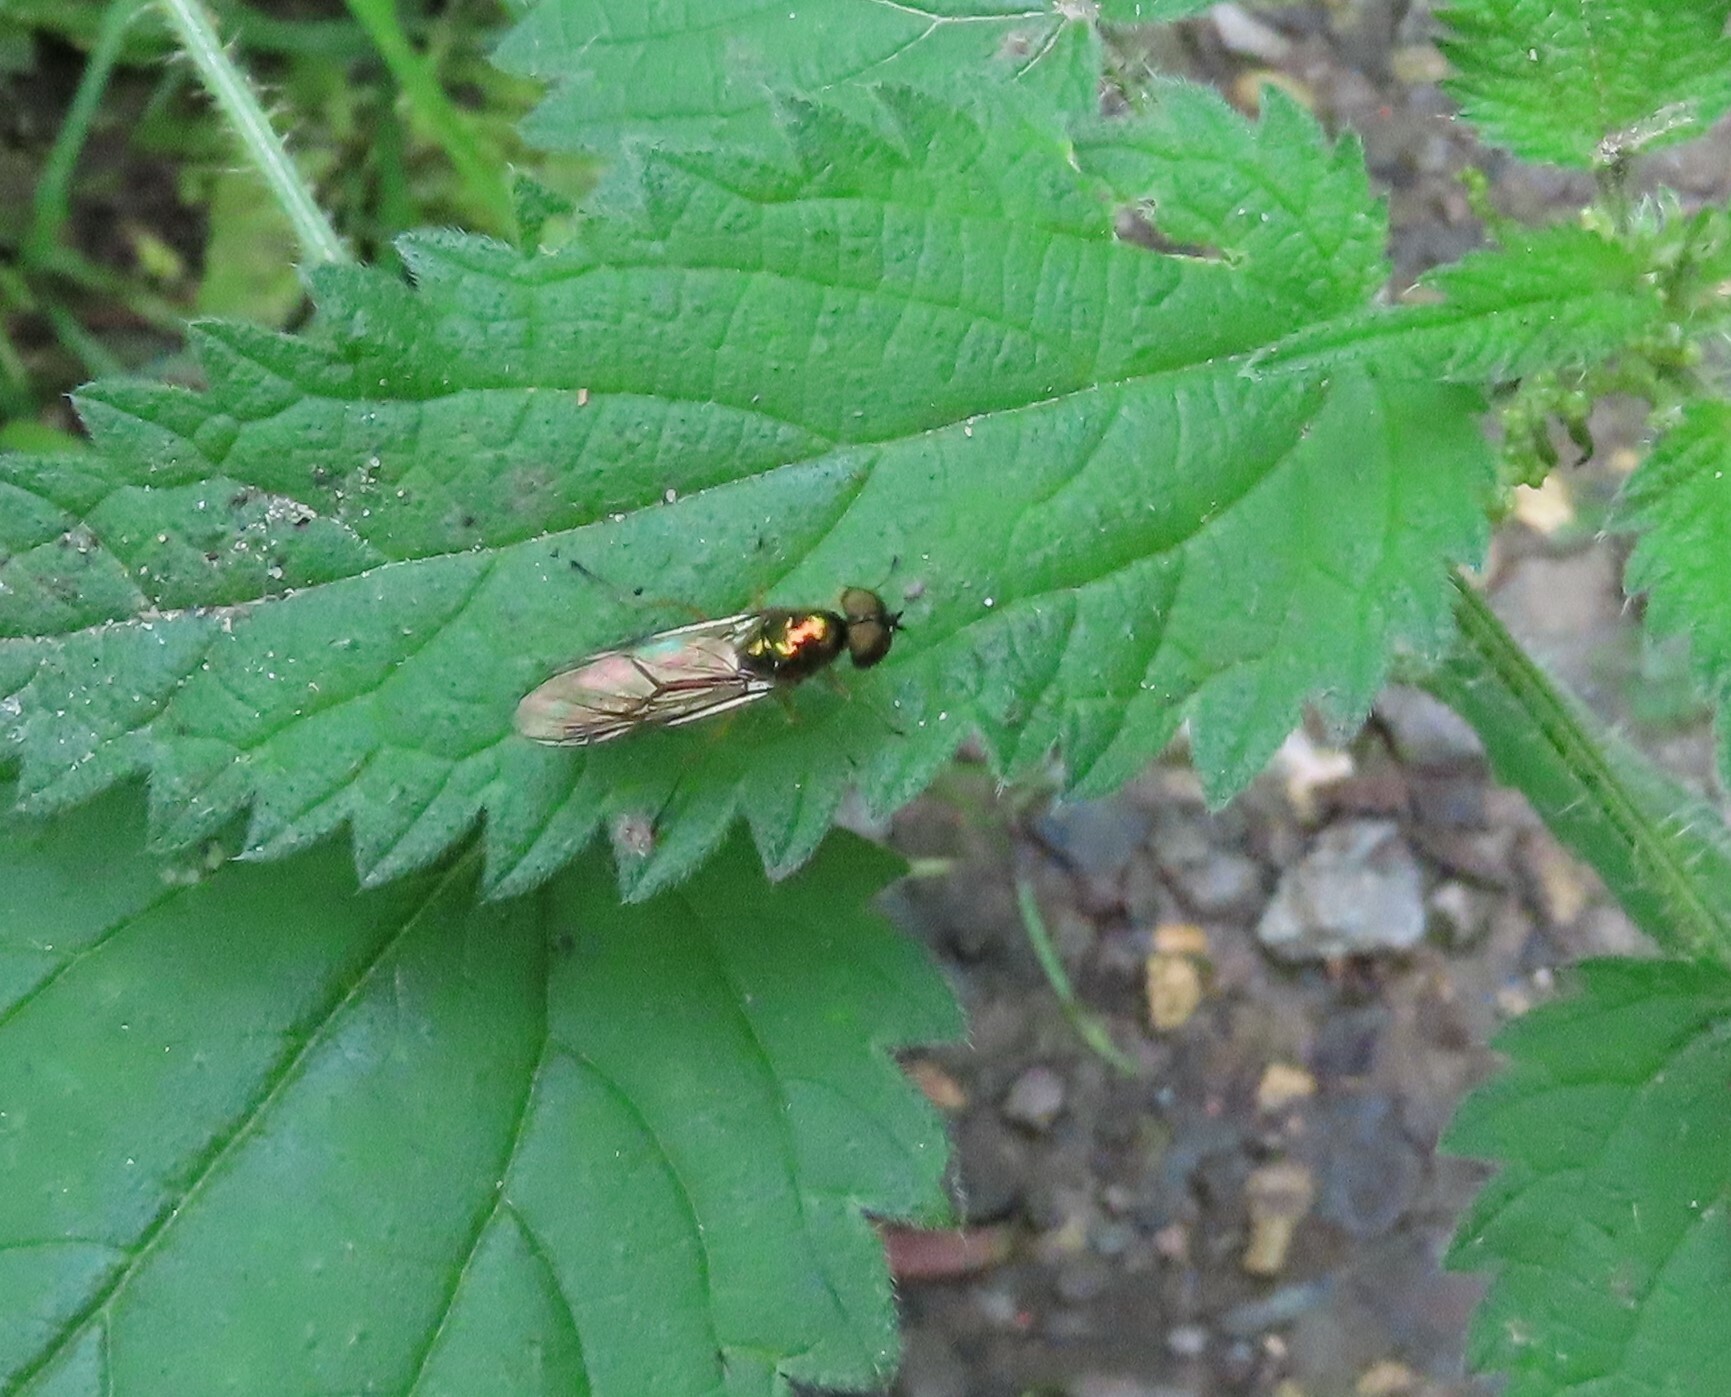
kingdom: Animalia
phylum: Arthropoda
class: Insecta
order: Diptera
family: Stratiomyidae
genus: Sargus
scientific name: Sargus bipunctatus
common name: Twin-spot centurion
